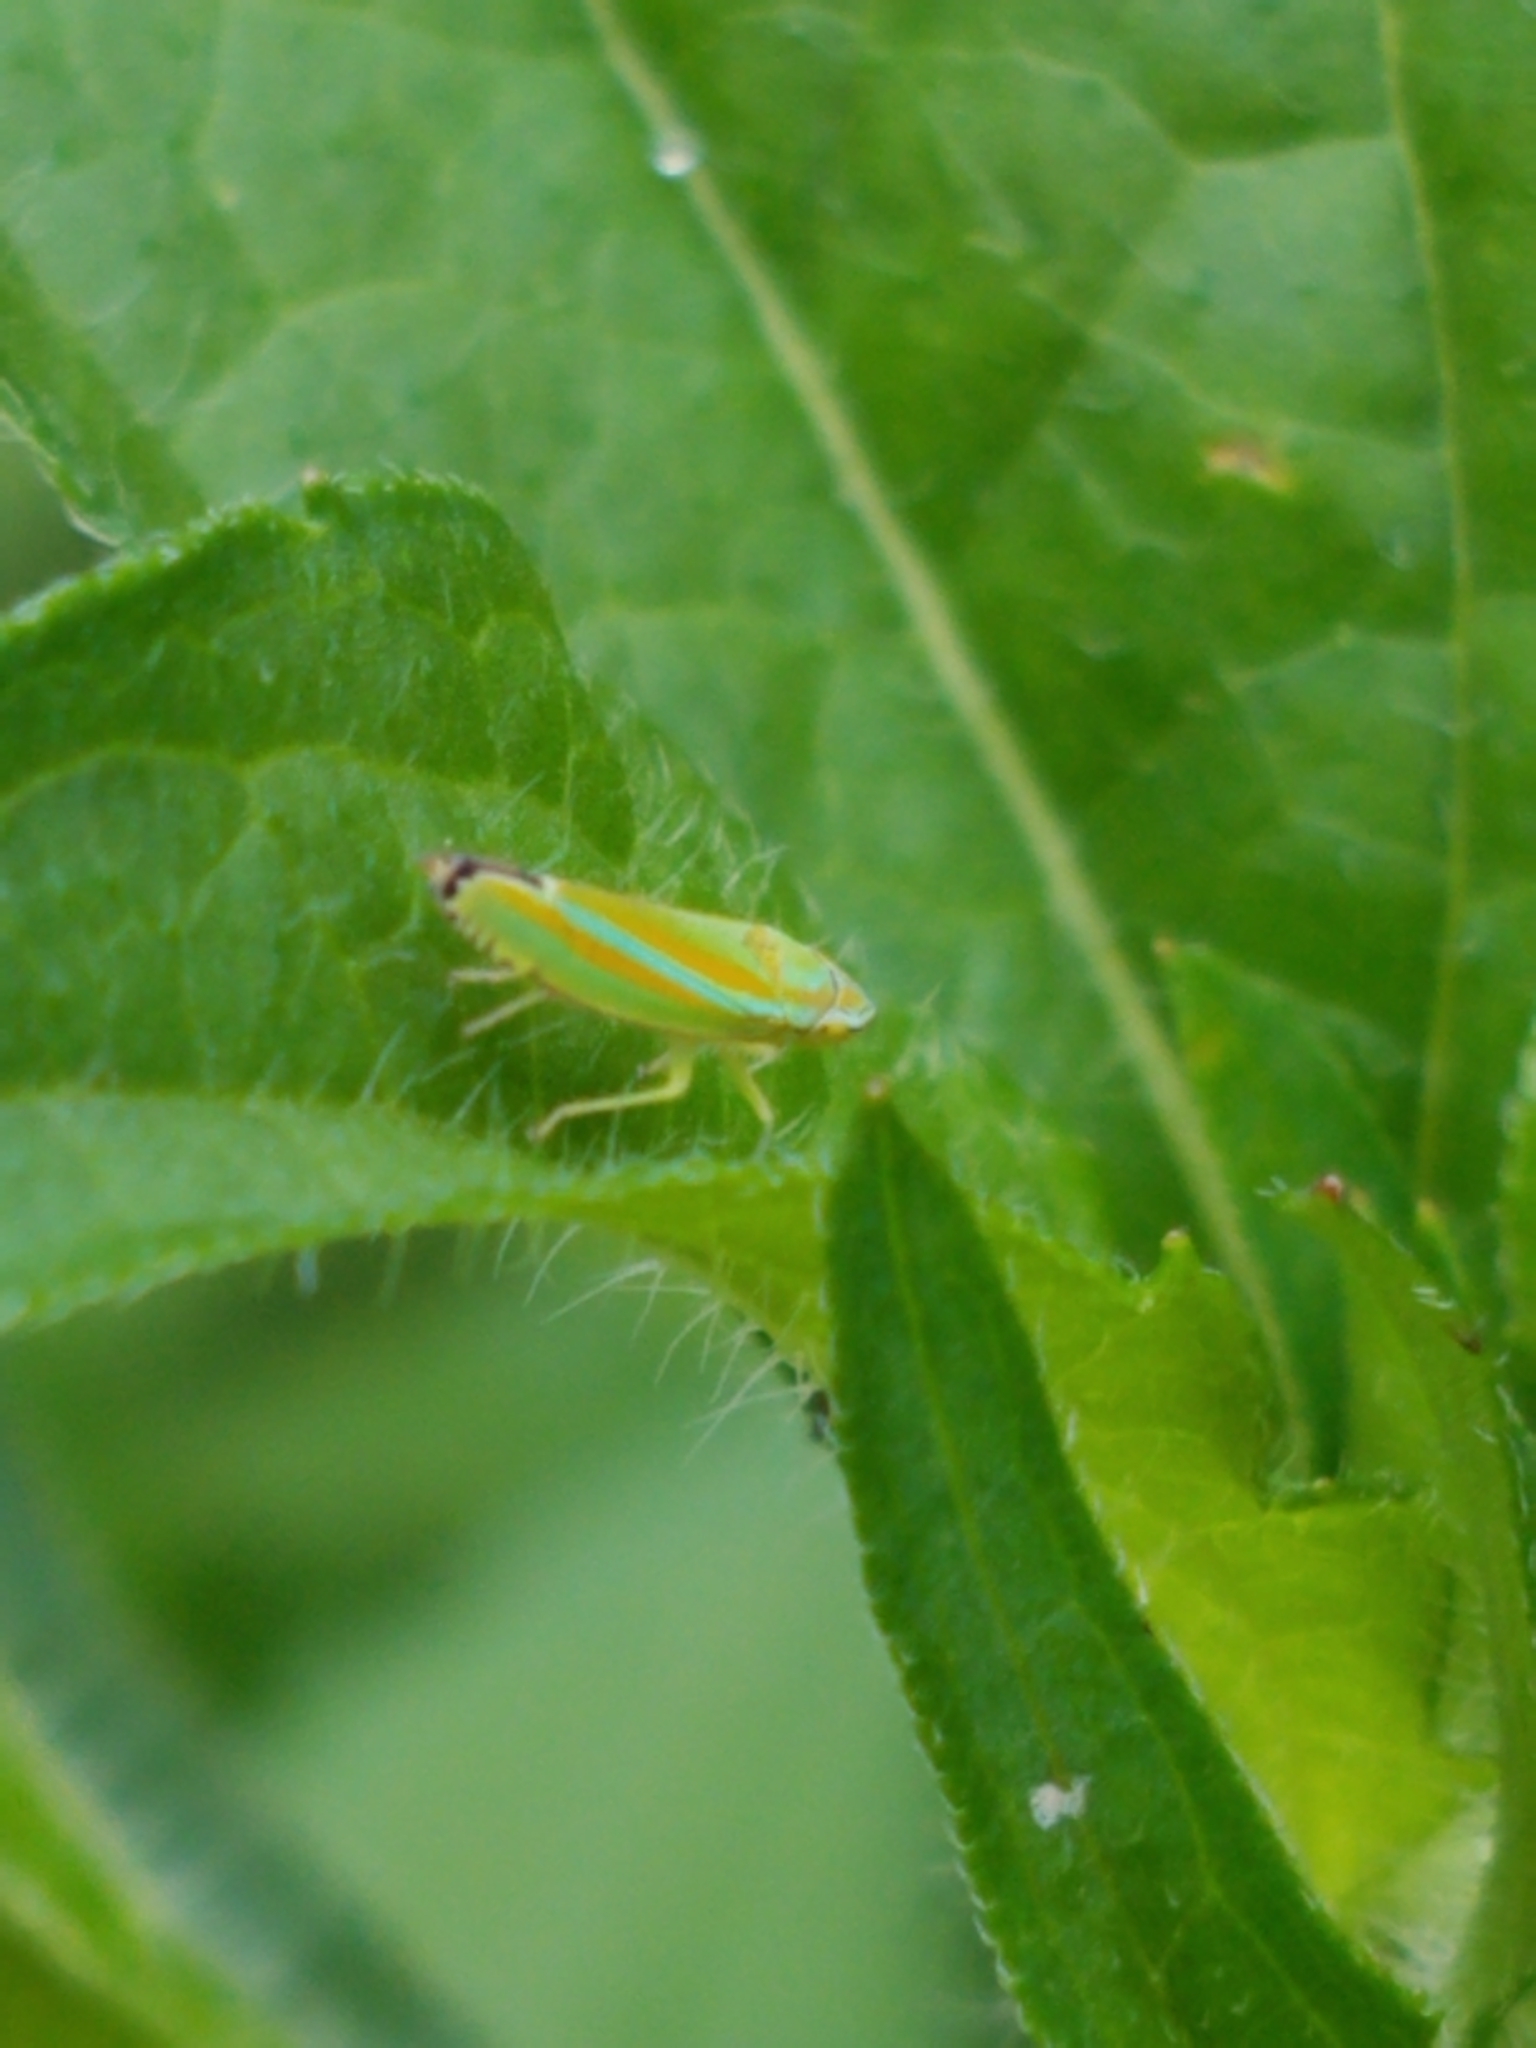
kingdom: Animalia
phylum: Arthropoda
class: Insecta
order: Hemiptera
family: Cicadellidae
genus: Graphocephala
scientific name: Graphocephala versuta
